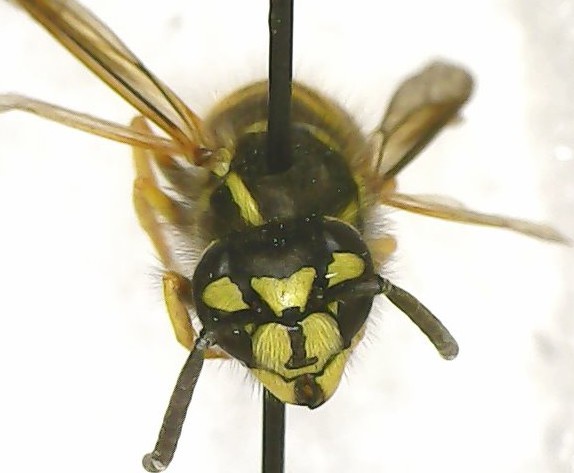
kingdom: Animalia
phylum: Arthropoda
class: Insecta
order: Hymenoptera
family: Vespidae
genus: Vespula
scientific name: Vespula maculifrons
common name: Eastern yellowjacket
